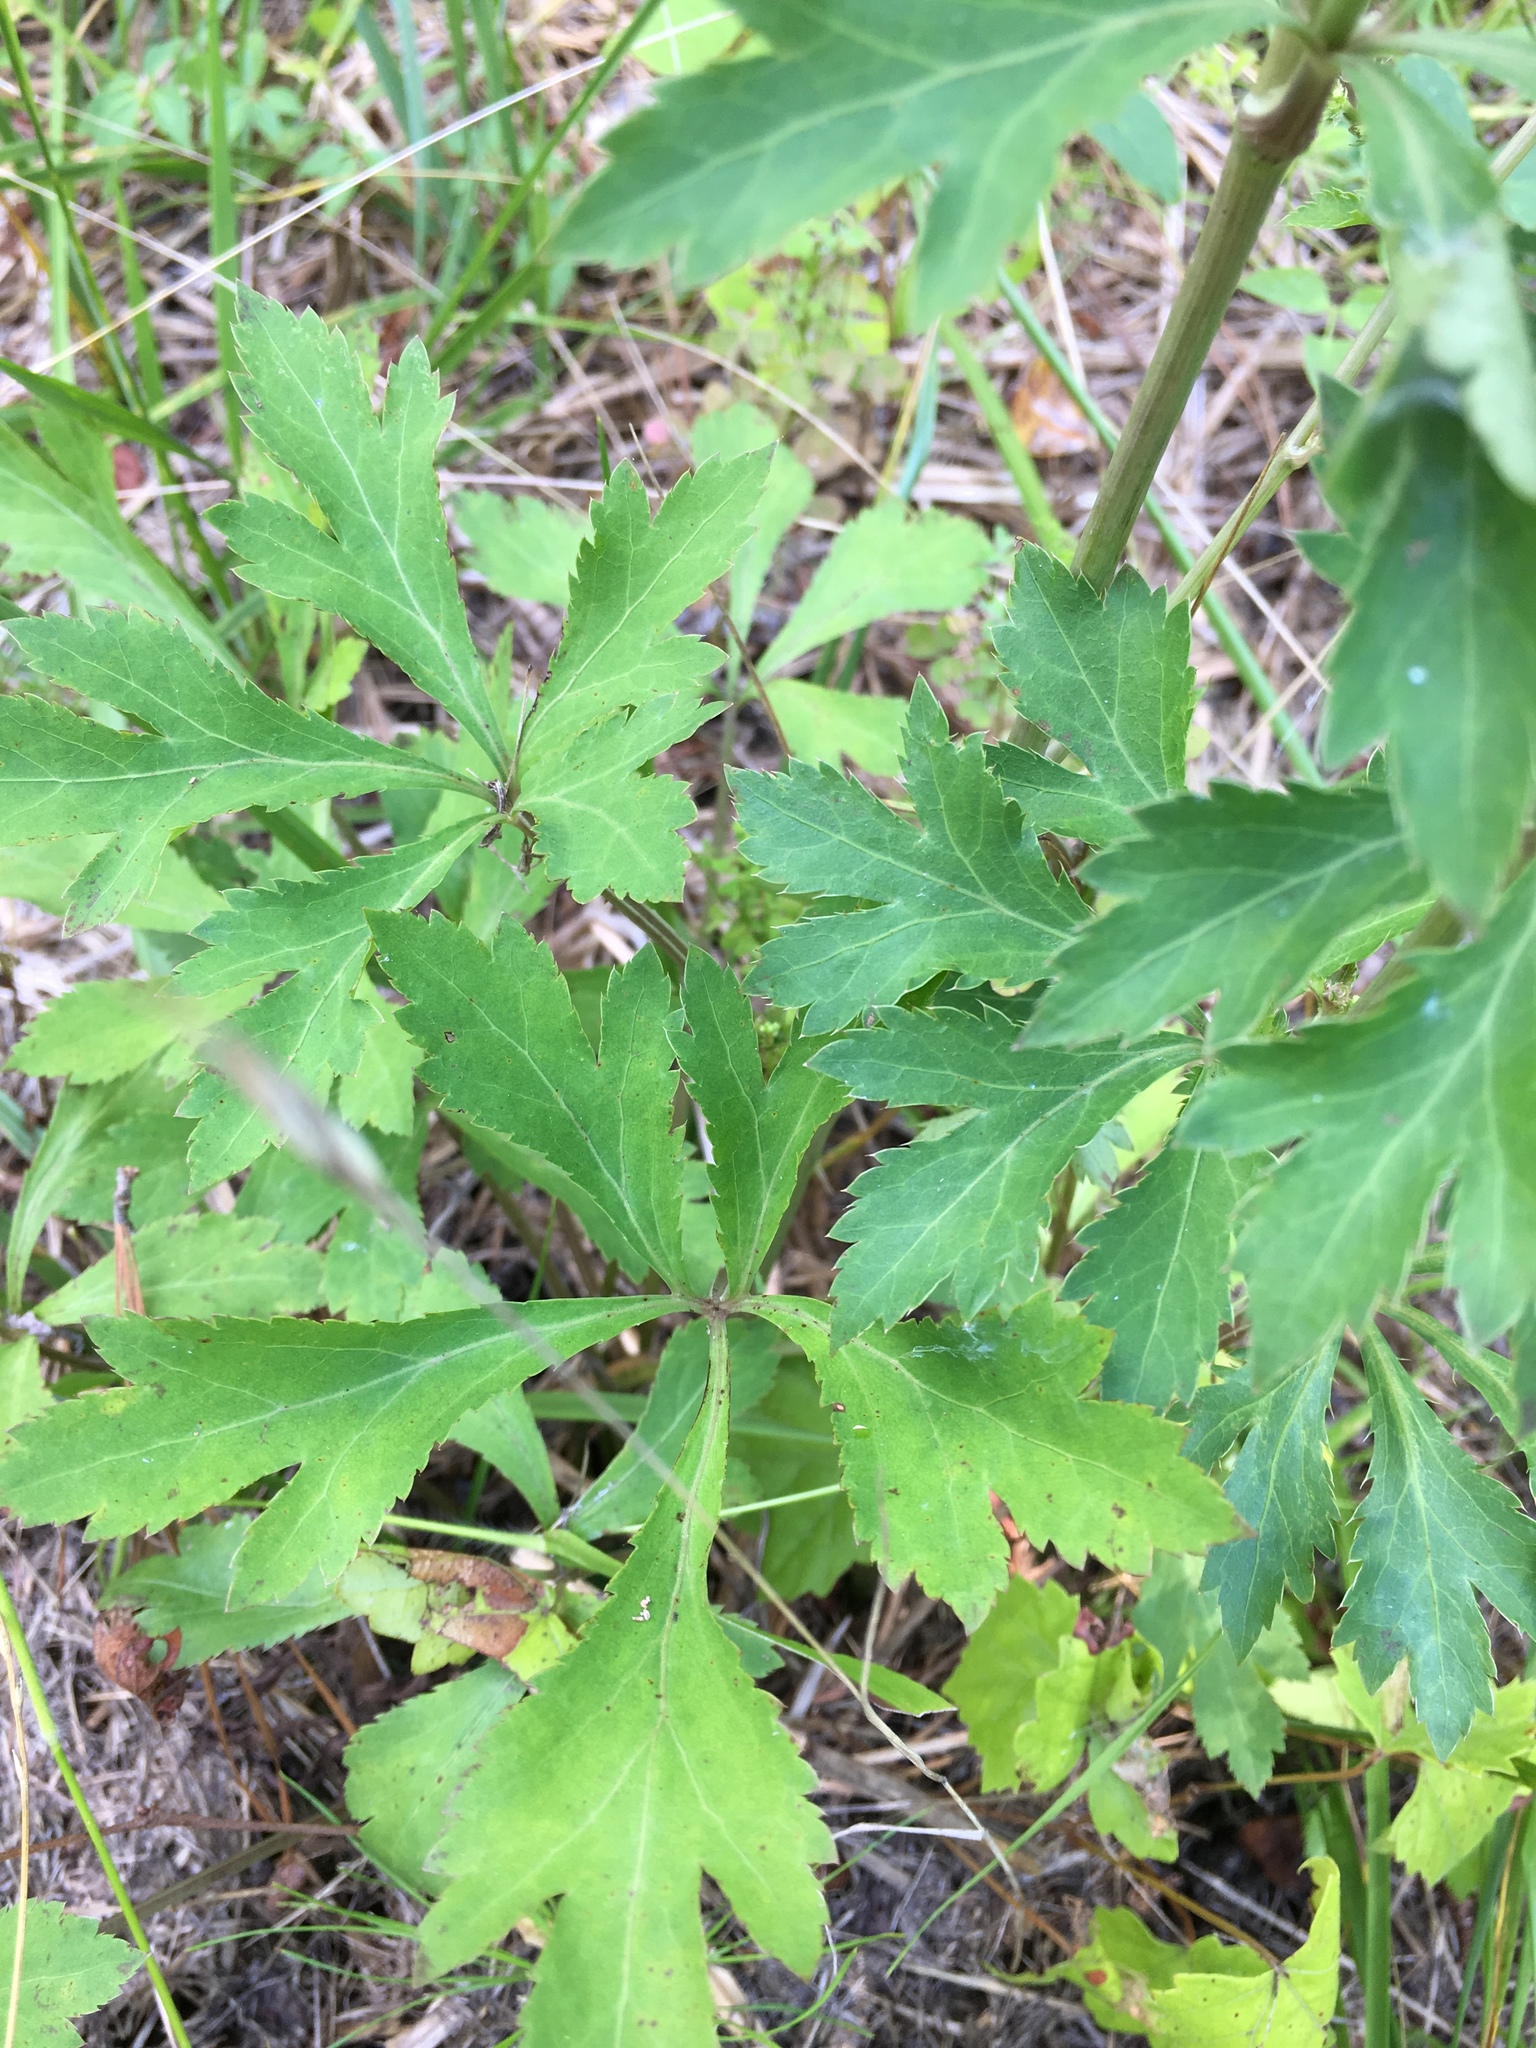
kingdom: Plantae
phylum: Tracheophyta
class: Magnoliopsida
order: Apiales
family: Apiaceae
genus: Sanicula
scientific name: Sanicula canadensis
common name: Canada sanicle
